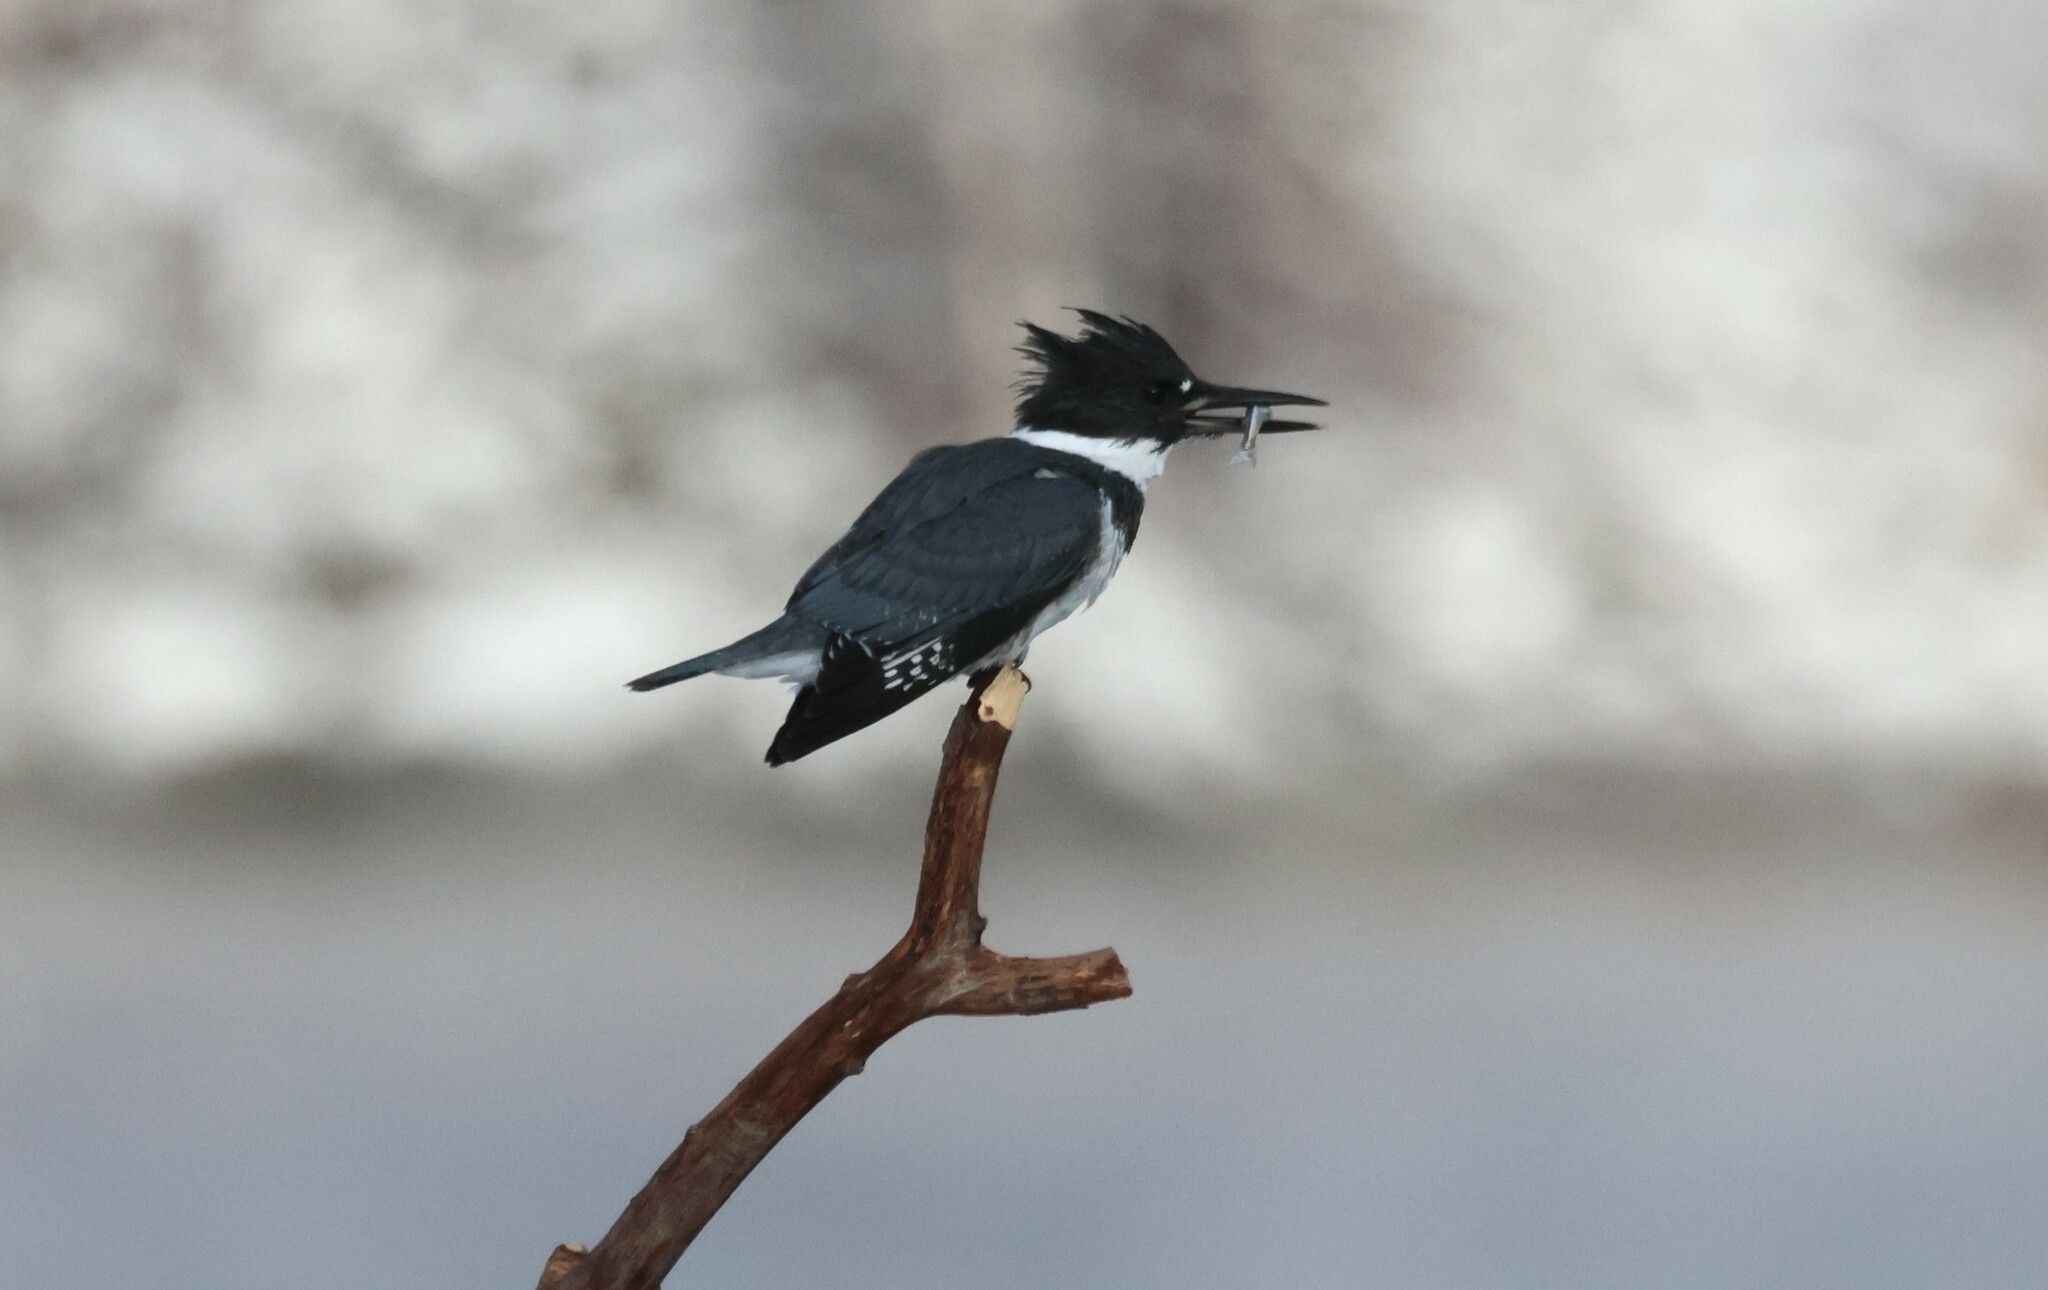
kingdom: Animalia
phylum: Chordata
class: Aves
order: Coraciiformes
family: Alcedinidae
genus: Megaceryle
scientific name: Megaceryle alcyon
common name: Belted kingfisher
